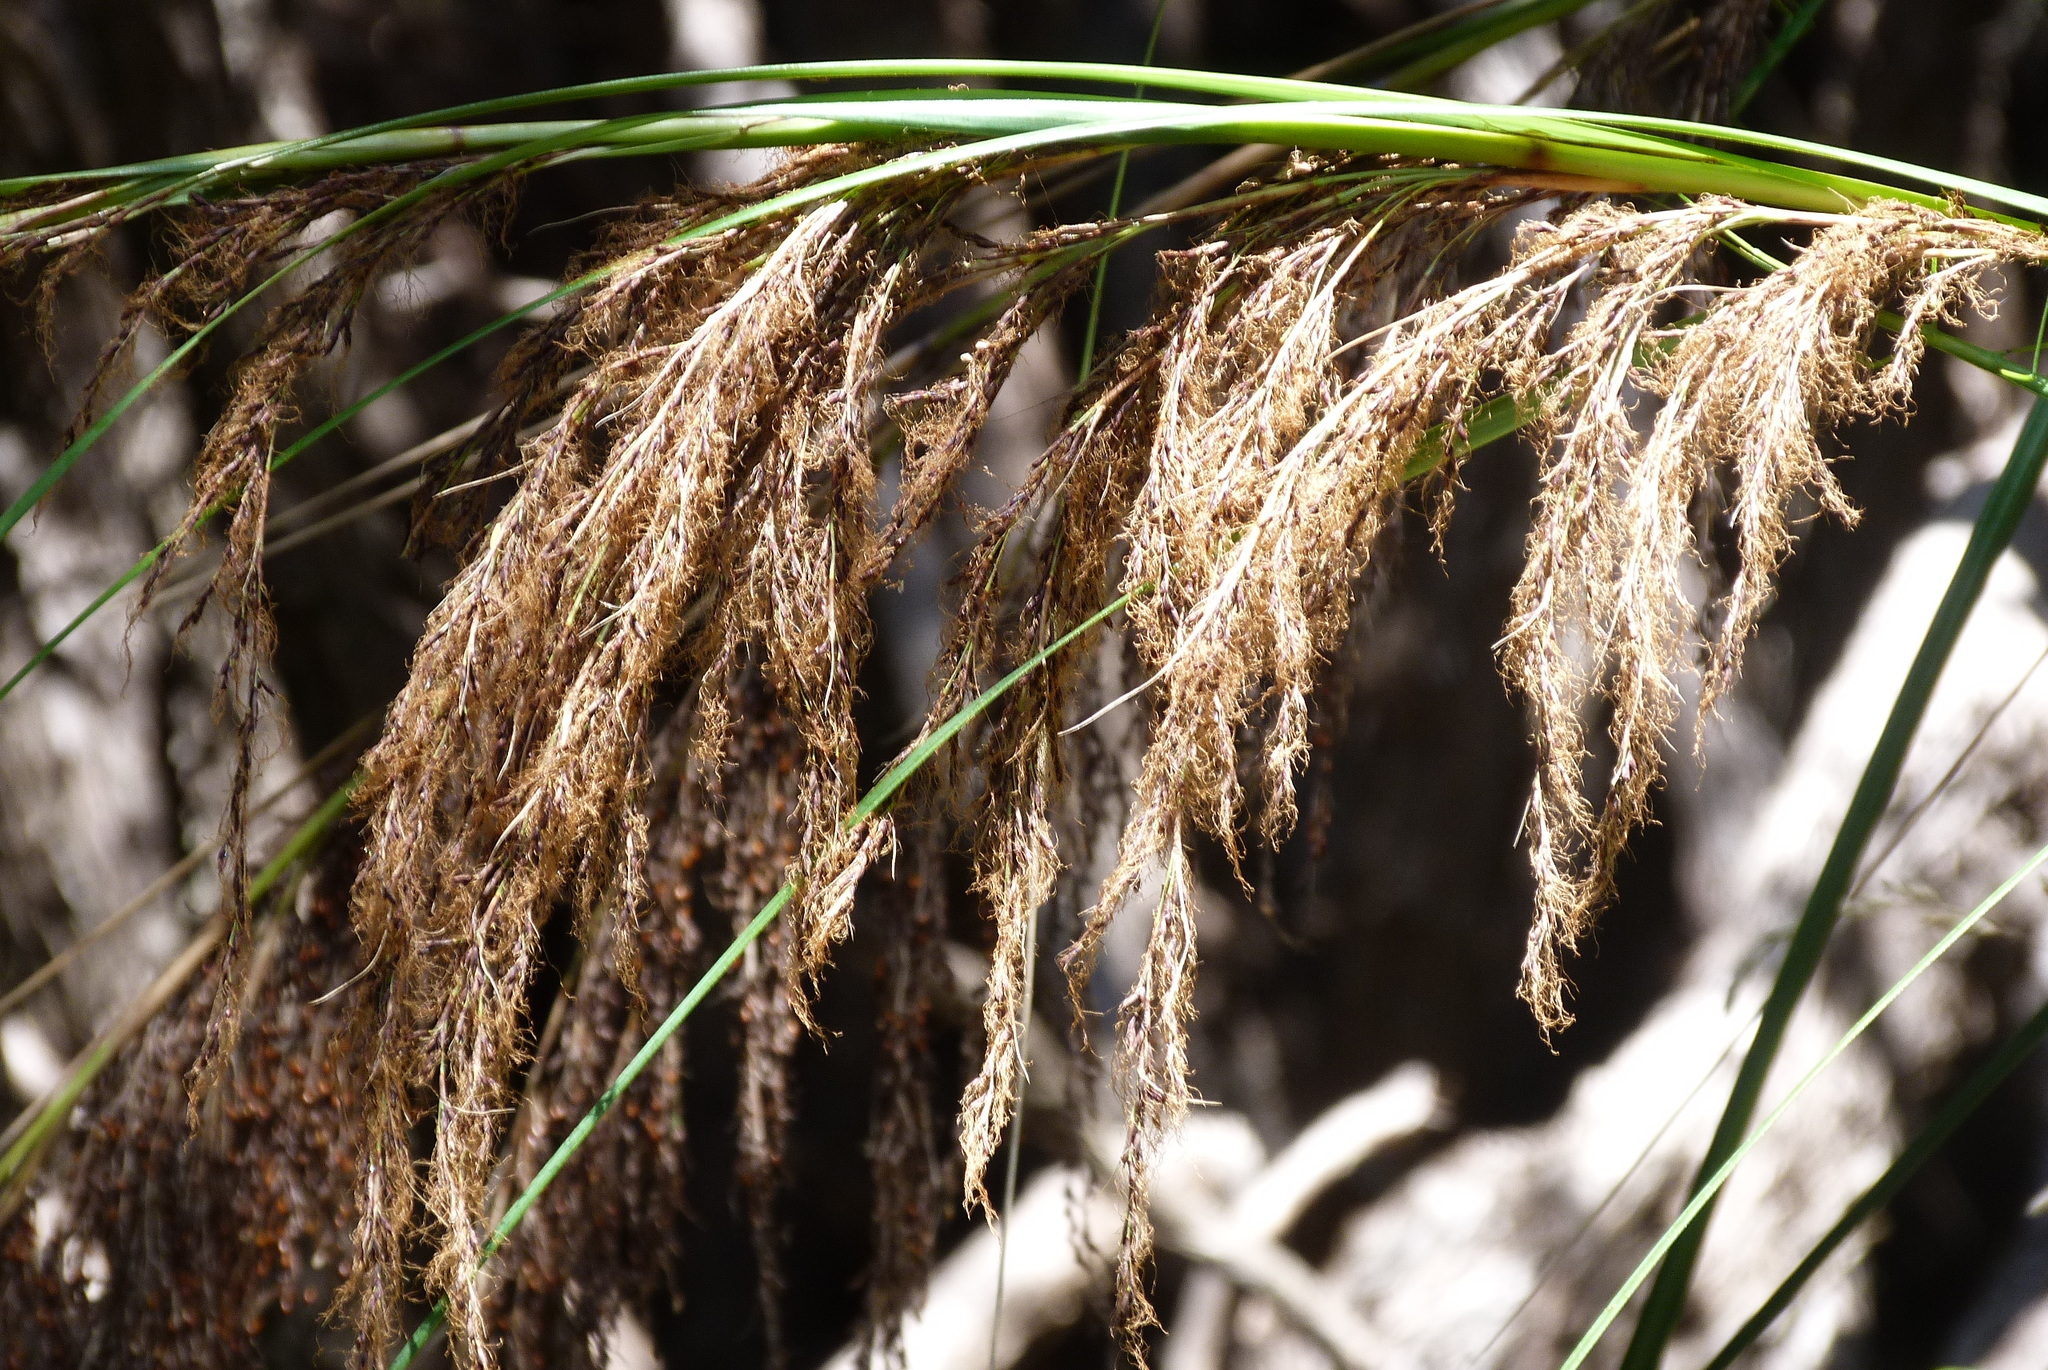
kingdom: Plantae
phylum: Tracheophyta
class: Liliopsida
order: Poales
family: Cyperaceae
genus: Gahnia
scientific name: Gahnia setifolia
